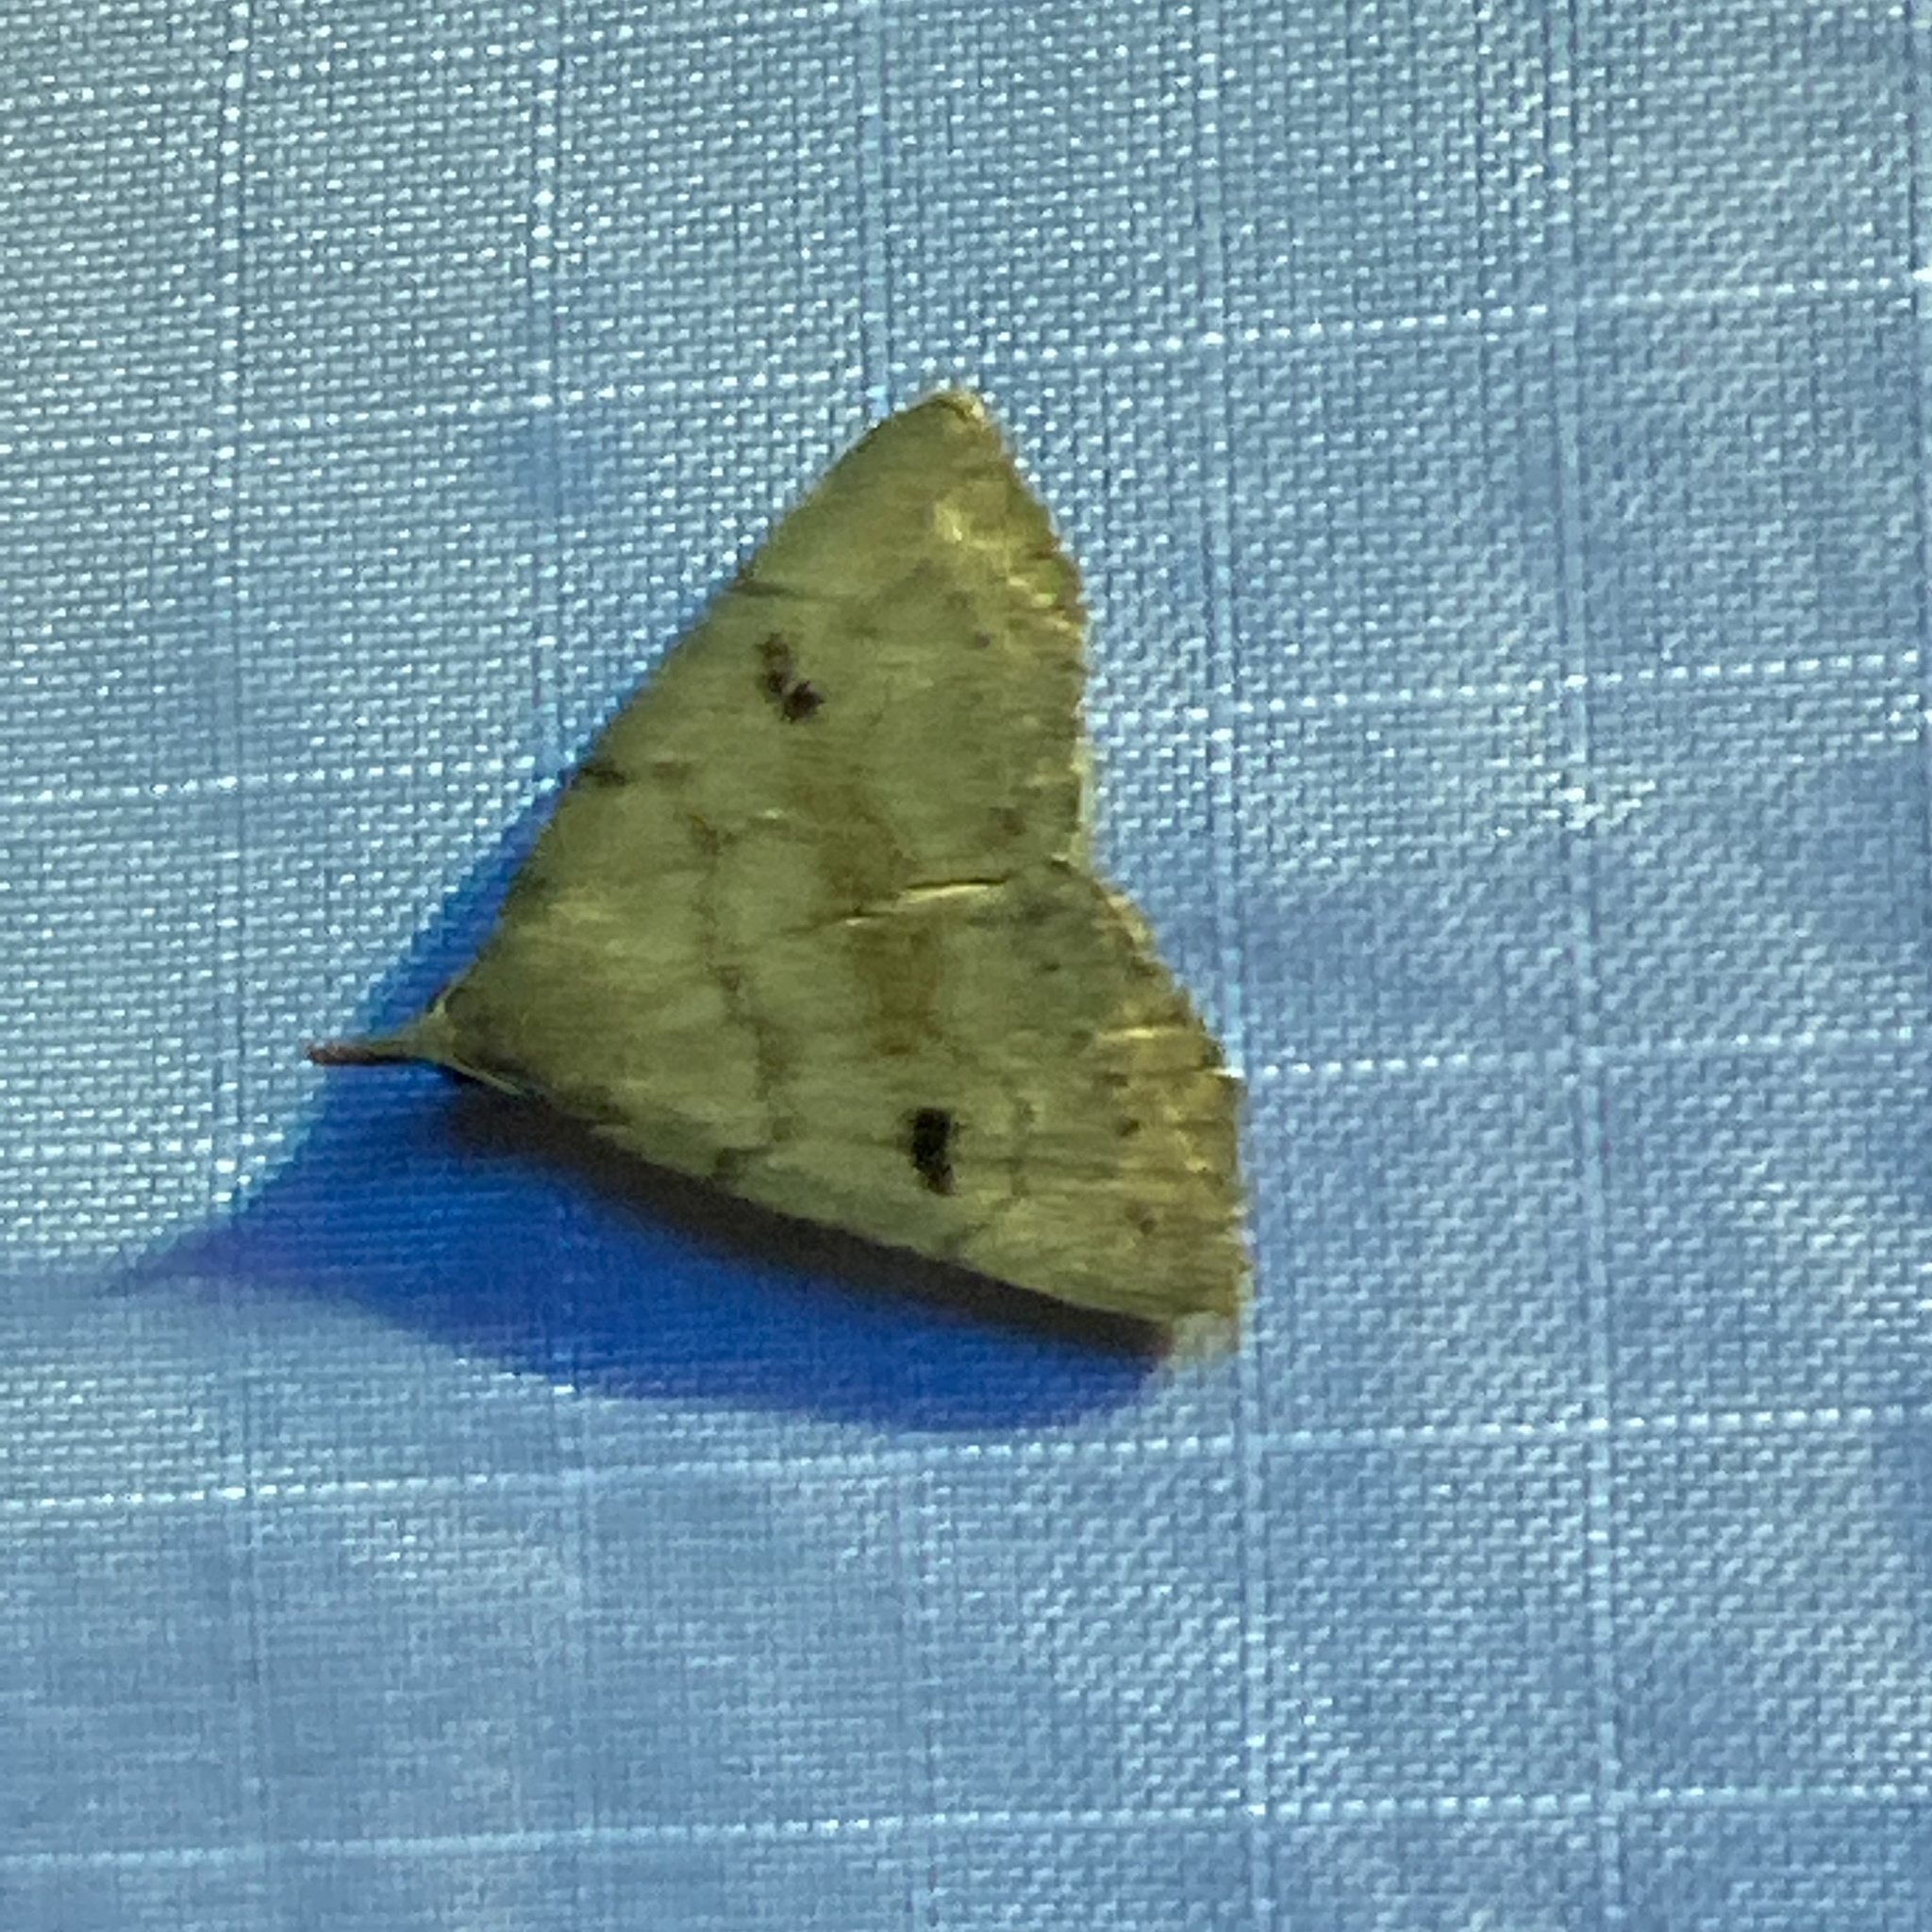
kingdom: Animalia
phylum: Arthropoda
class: Insecta
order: Lepidoptera
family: Erebidae
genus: Macrochilo
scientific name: Macrochilo morbidalis
